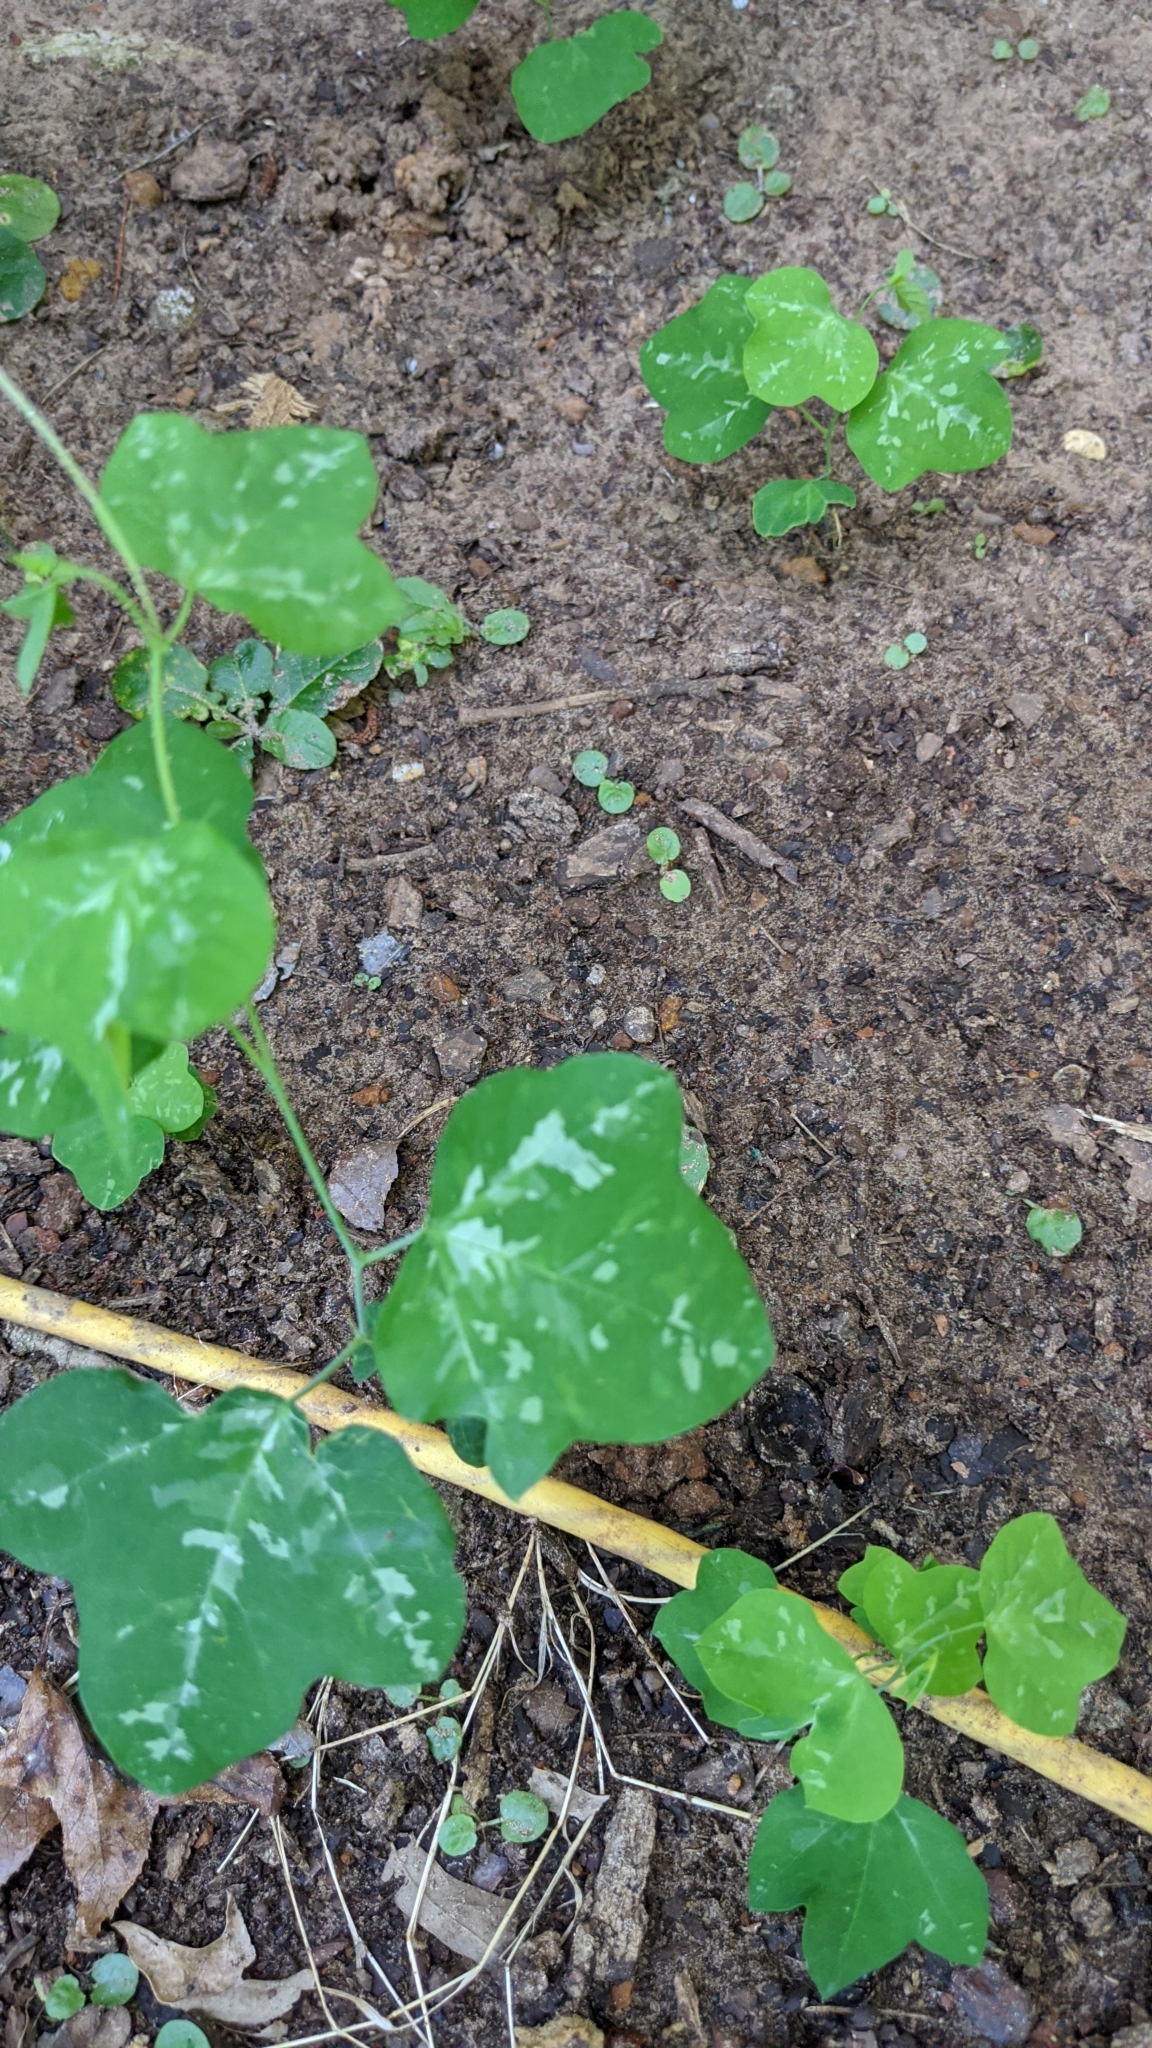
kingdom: Plantae
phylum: Tracheophyta
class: Magnoliopsida
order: Malpighiales
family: Passifloraceae
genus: Passiflora
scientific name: Passiflora lutea
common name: Yellow passionflower
